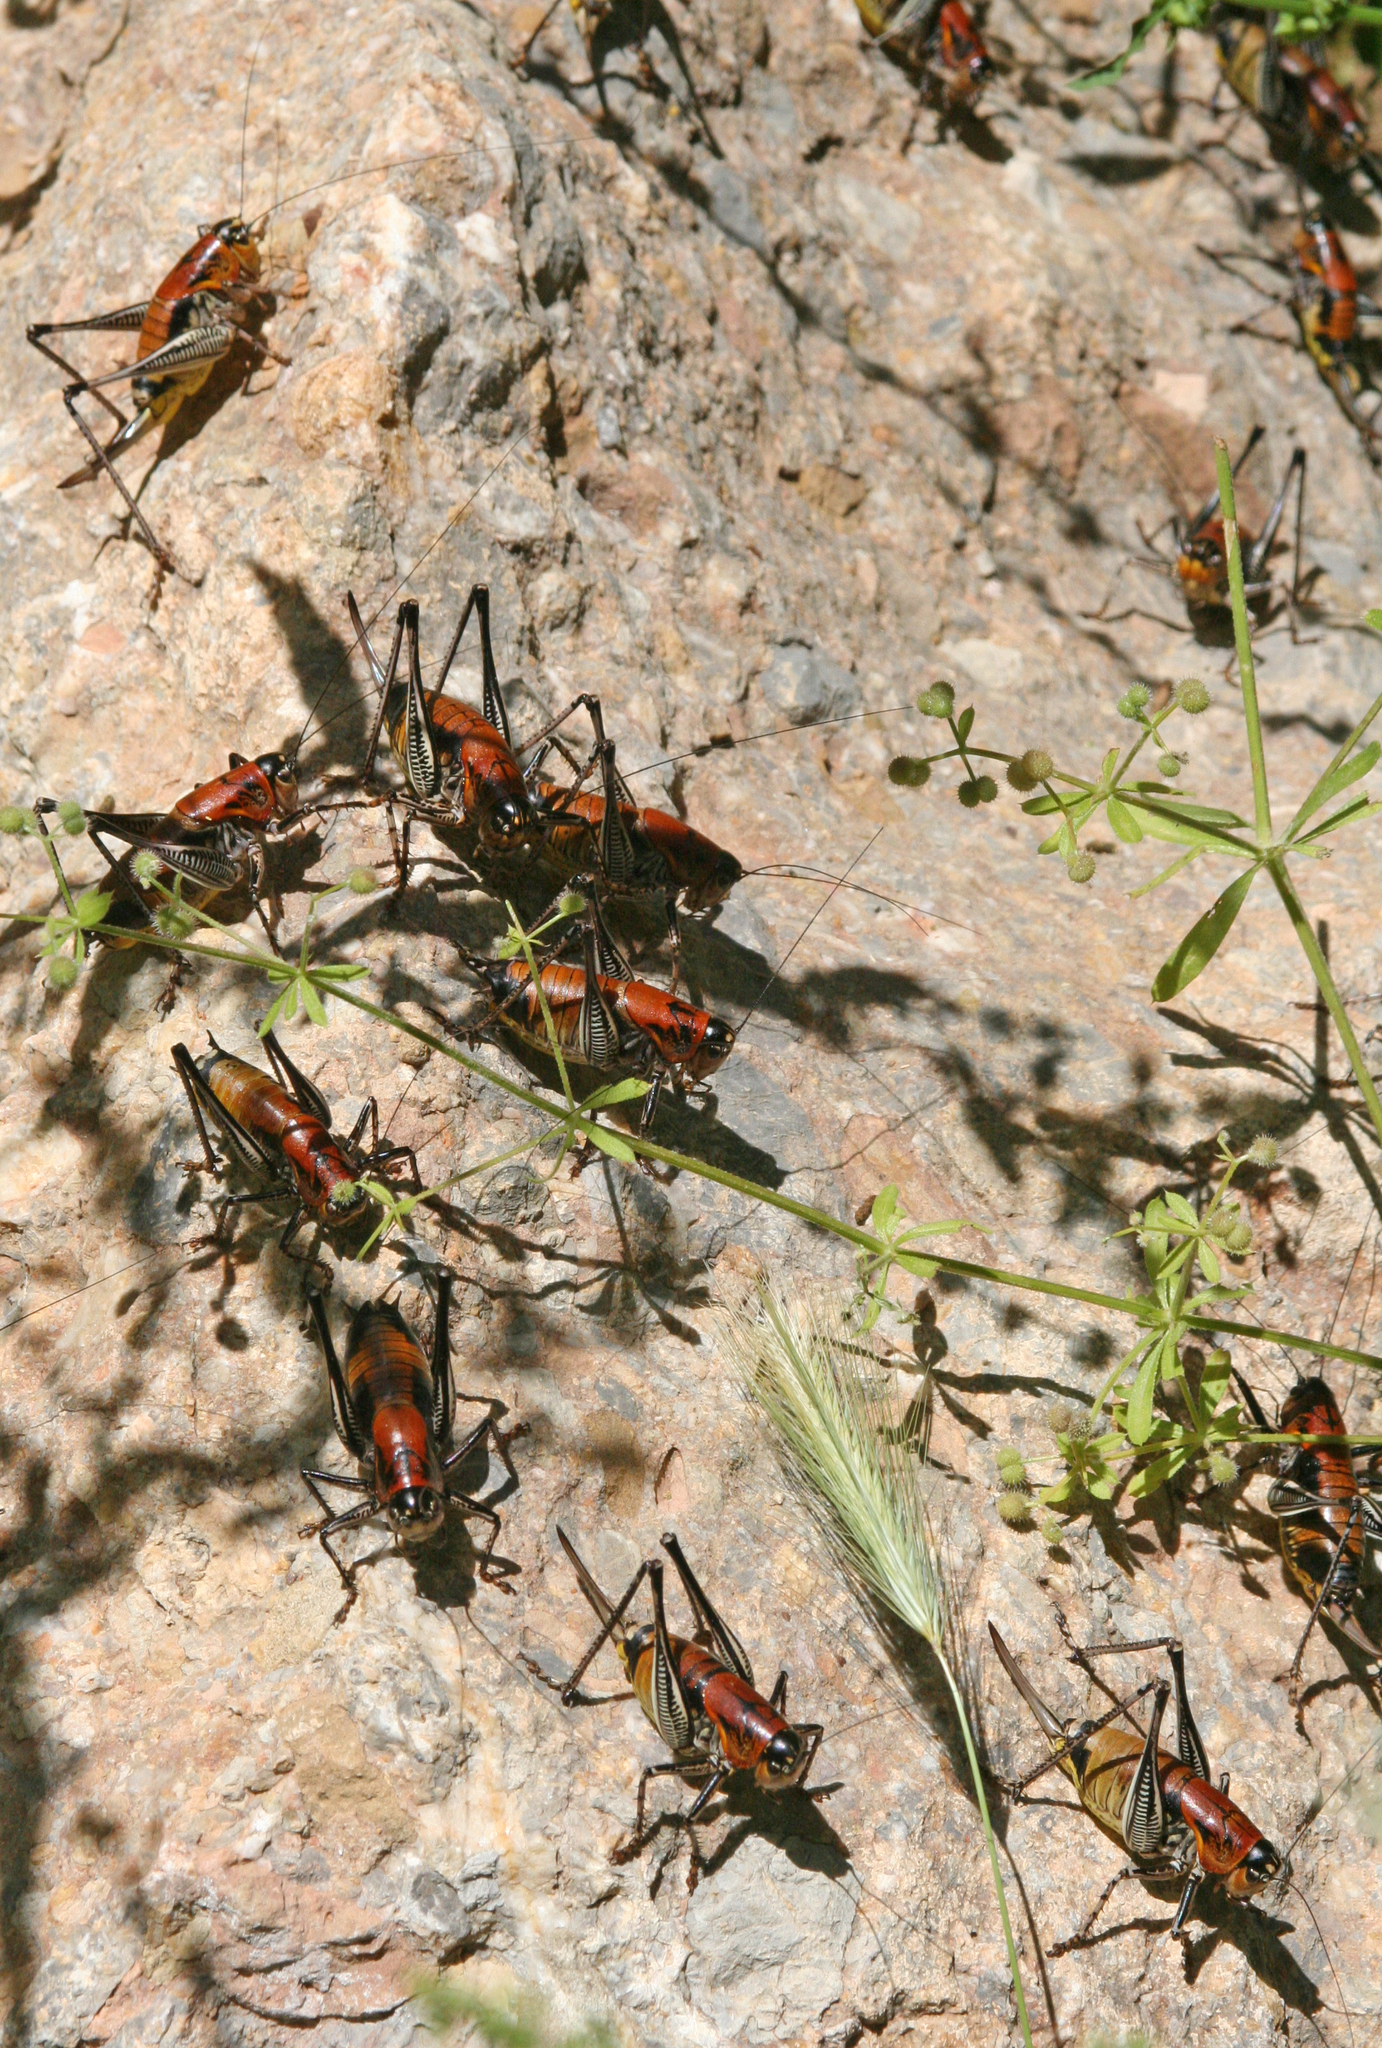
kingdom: Animalia
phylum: Arthropoda
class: Insecta
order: Orthoptera
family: Tettigoniidae
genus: Uvarovistia
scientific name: Uvarovistia satunini
